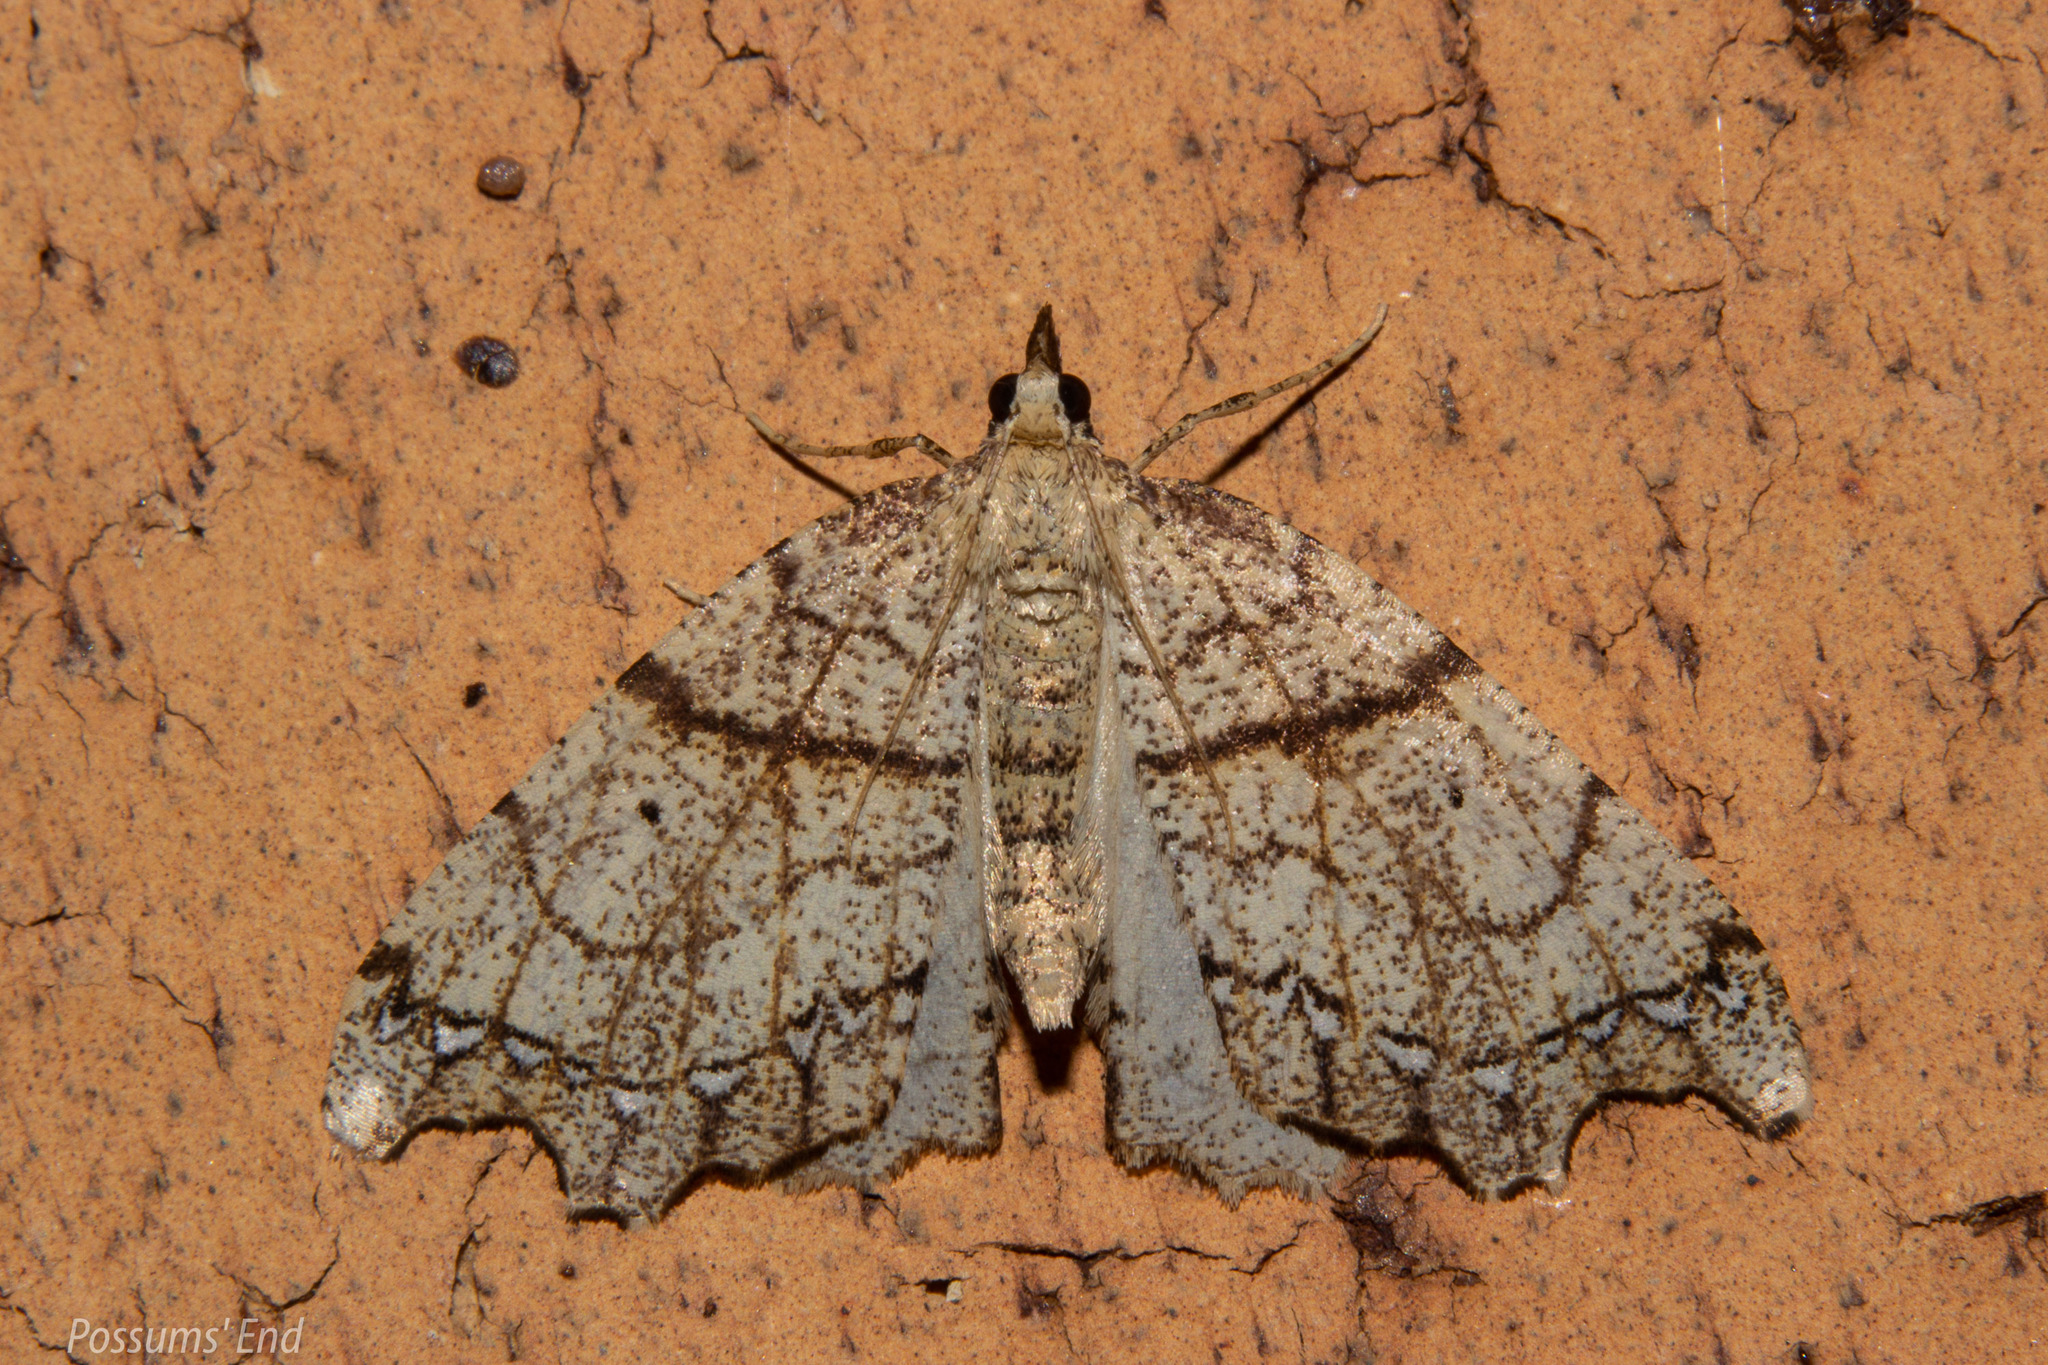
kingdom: Animalia
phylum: Arthropoda
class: Insecta
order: Lepidoptera
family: Geometridae
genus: Chalastra
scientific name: Chalastra pellurgata
